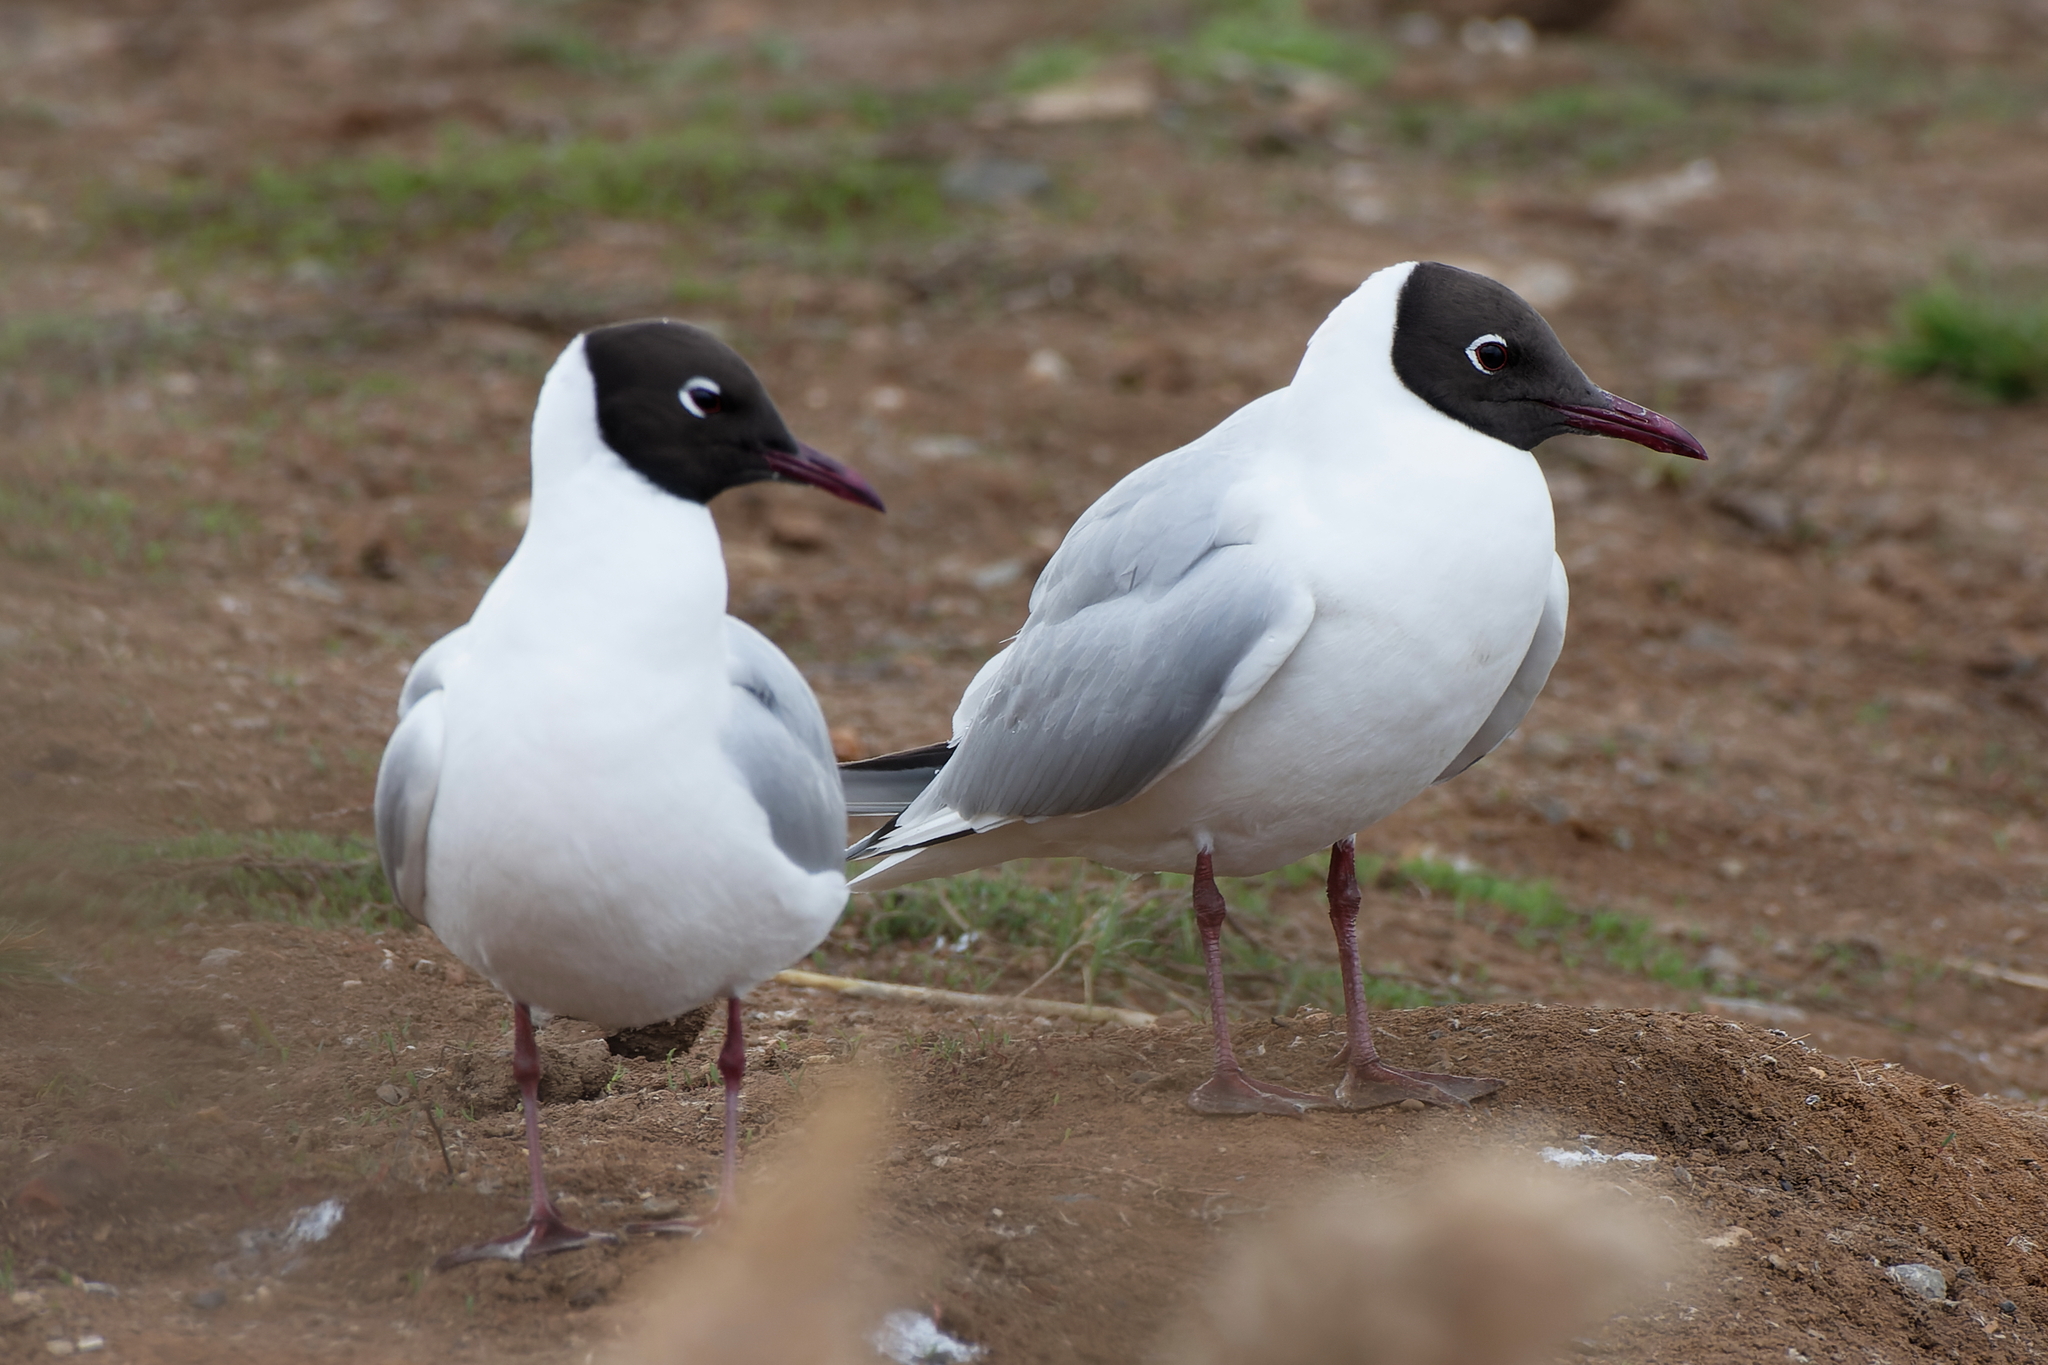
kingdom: Animalia
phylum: Chordata
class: Aves
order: Charadriiformes
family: Laridae
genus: Chroicocephalus
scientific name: Chroicocephalus ridibundus
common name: Black-headed gull
